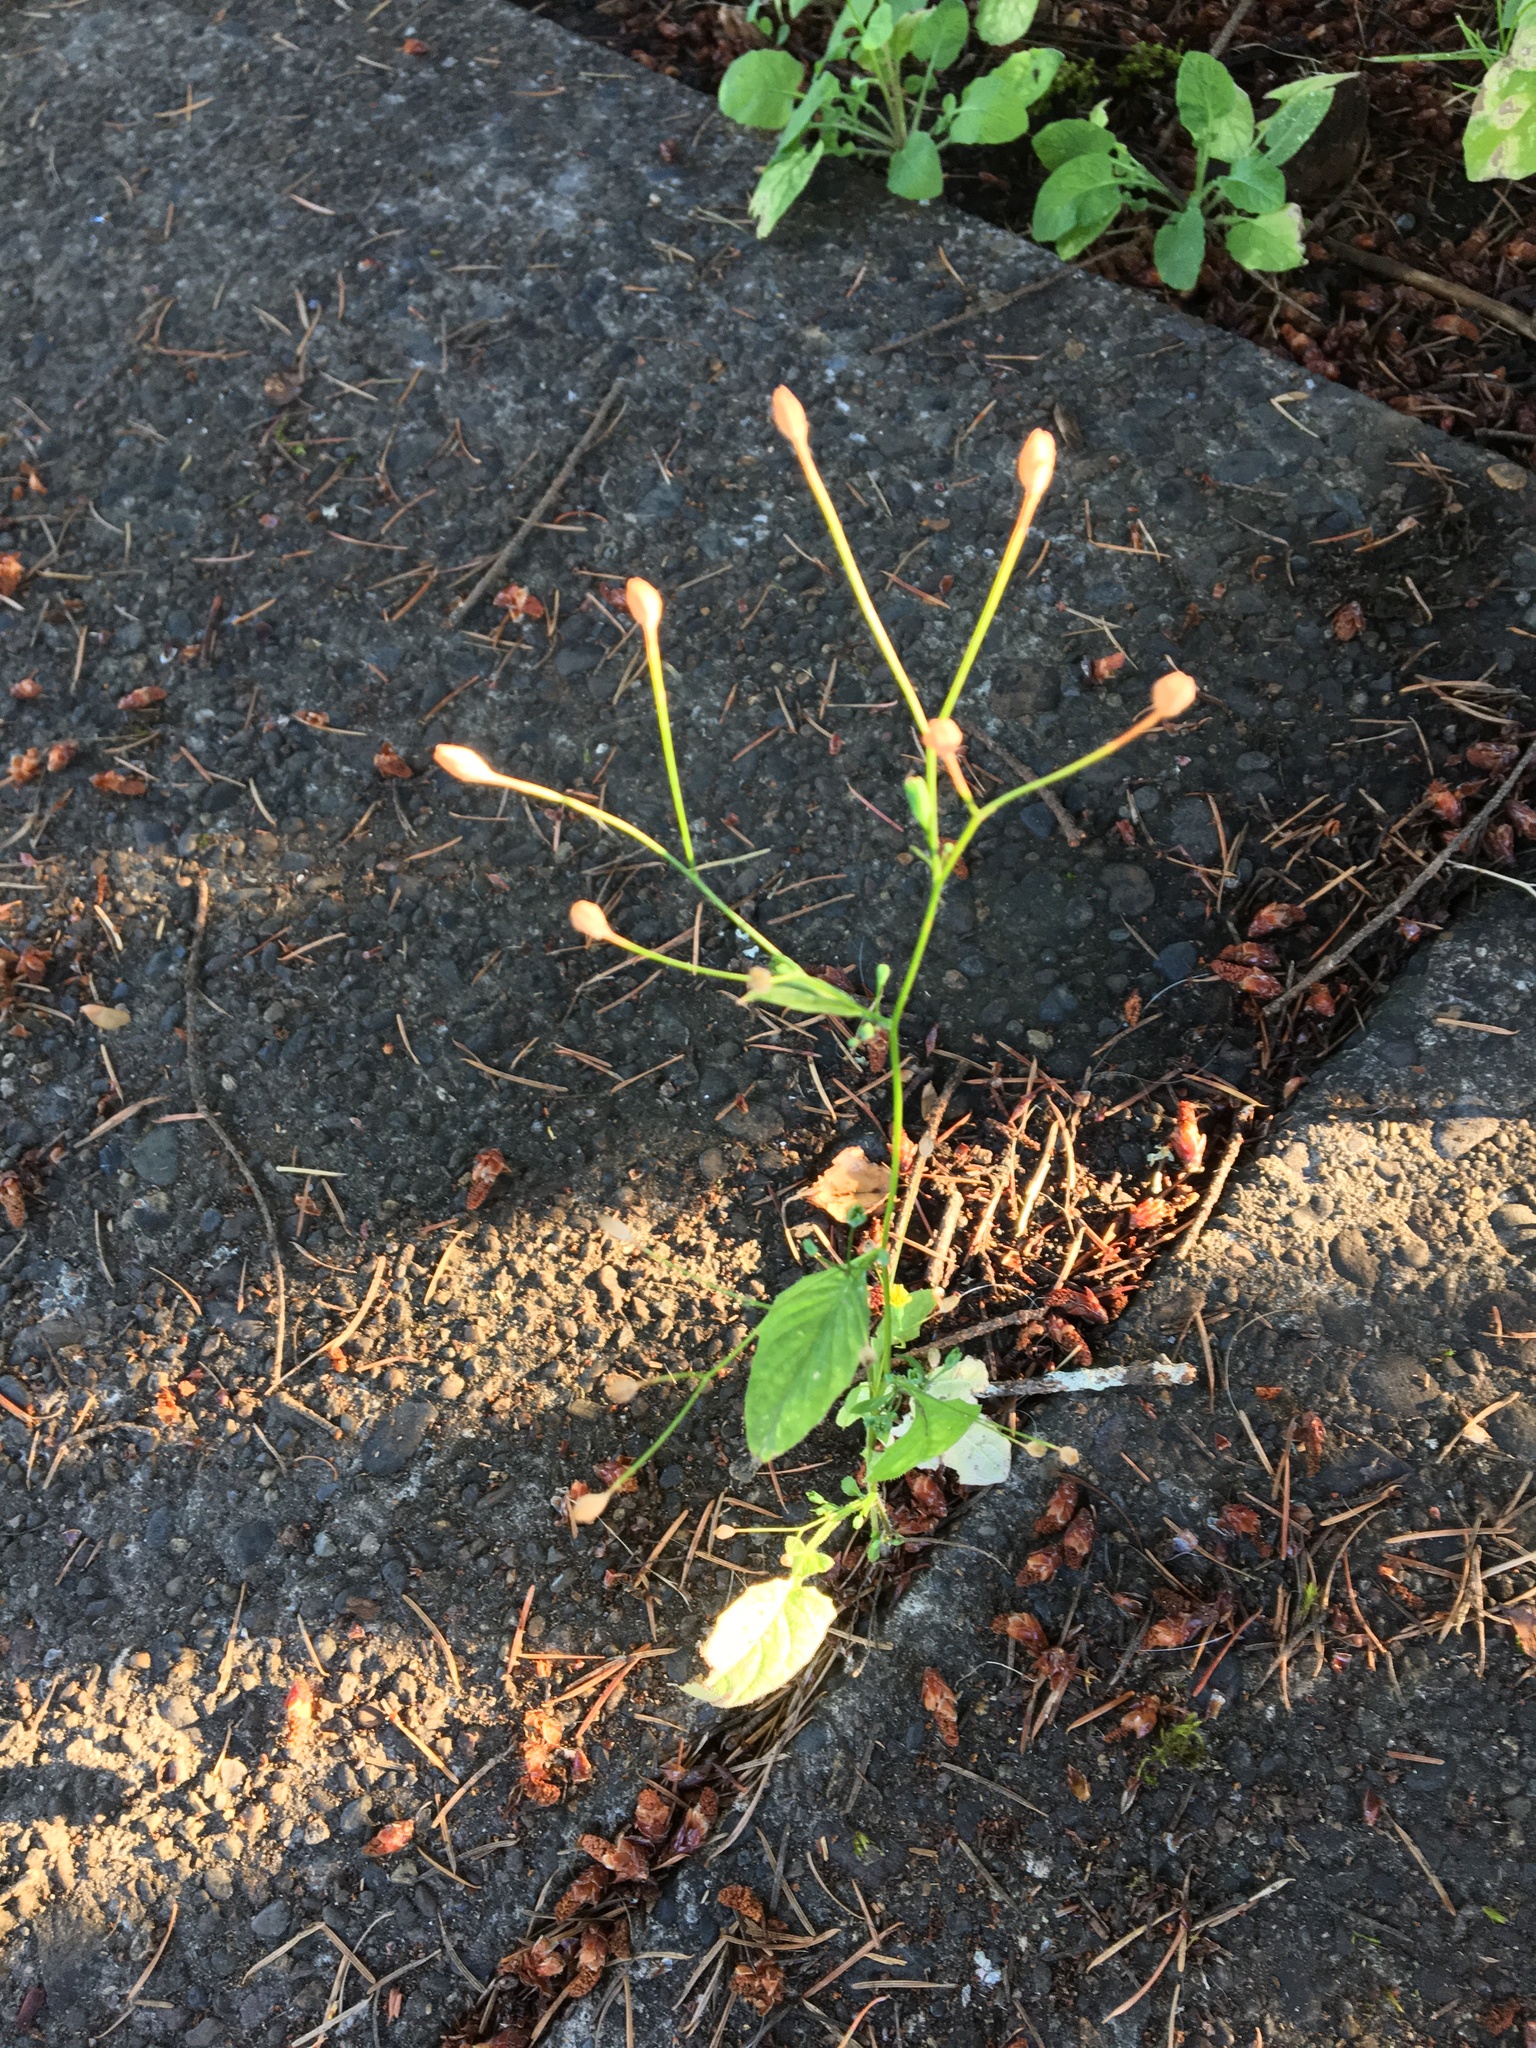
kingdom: Plantae
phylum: Tracheophyta
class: Magnoliopsida
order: Asterales
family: Asteraceae
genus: Lapsana
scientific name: Lapsana communis
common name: Nipplewort
